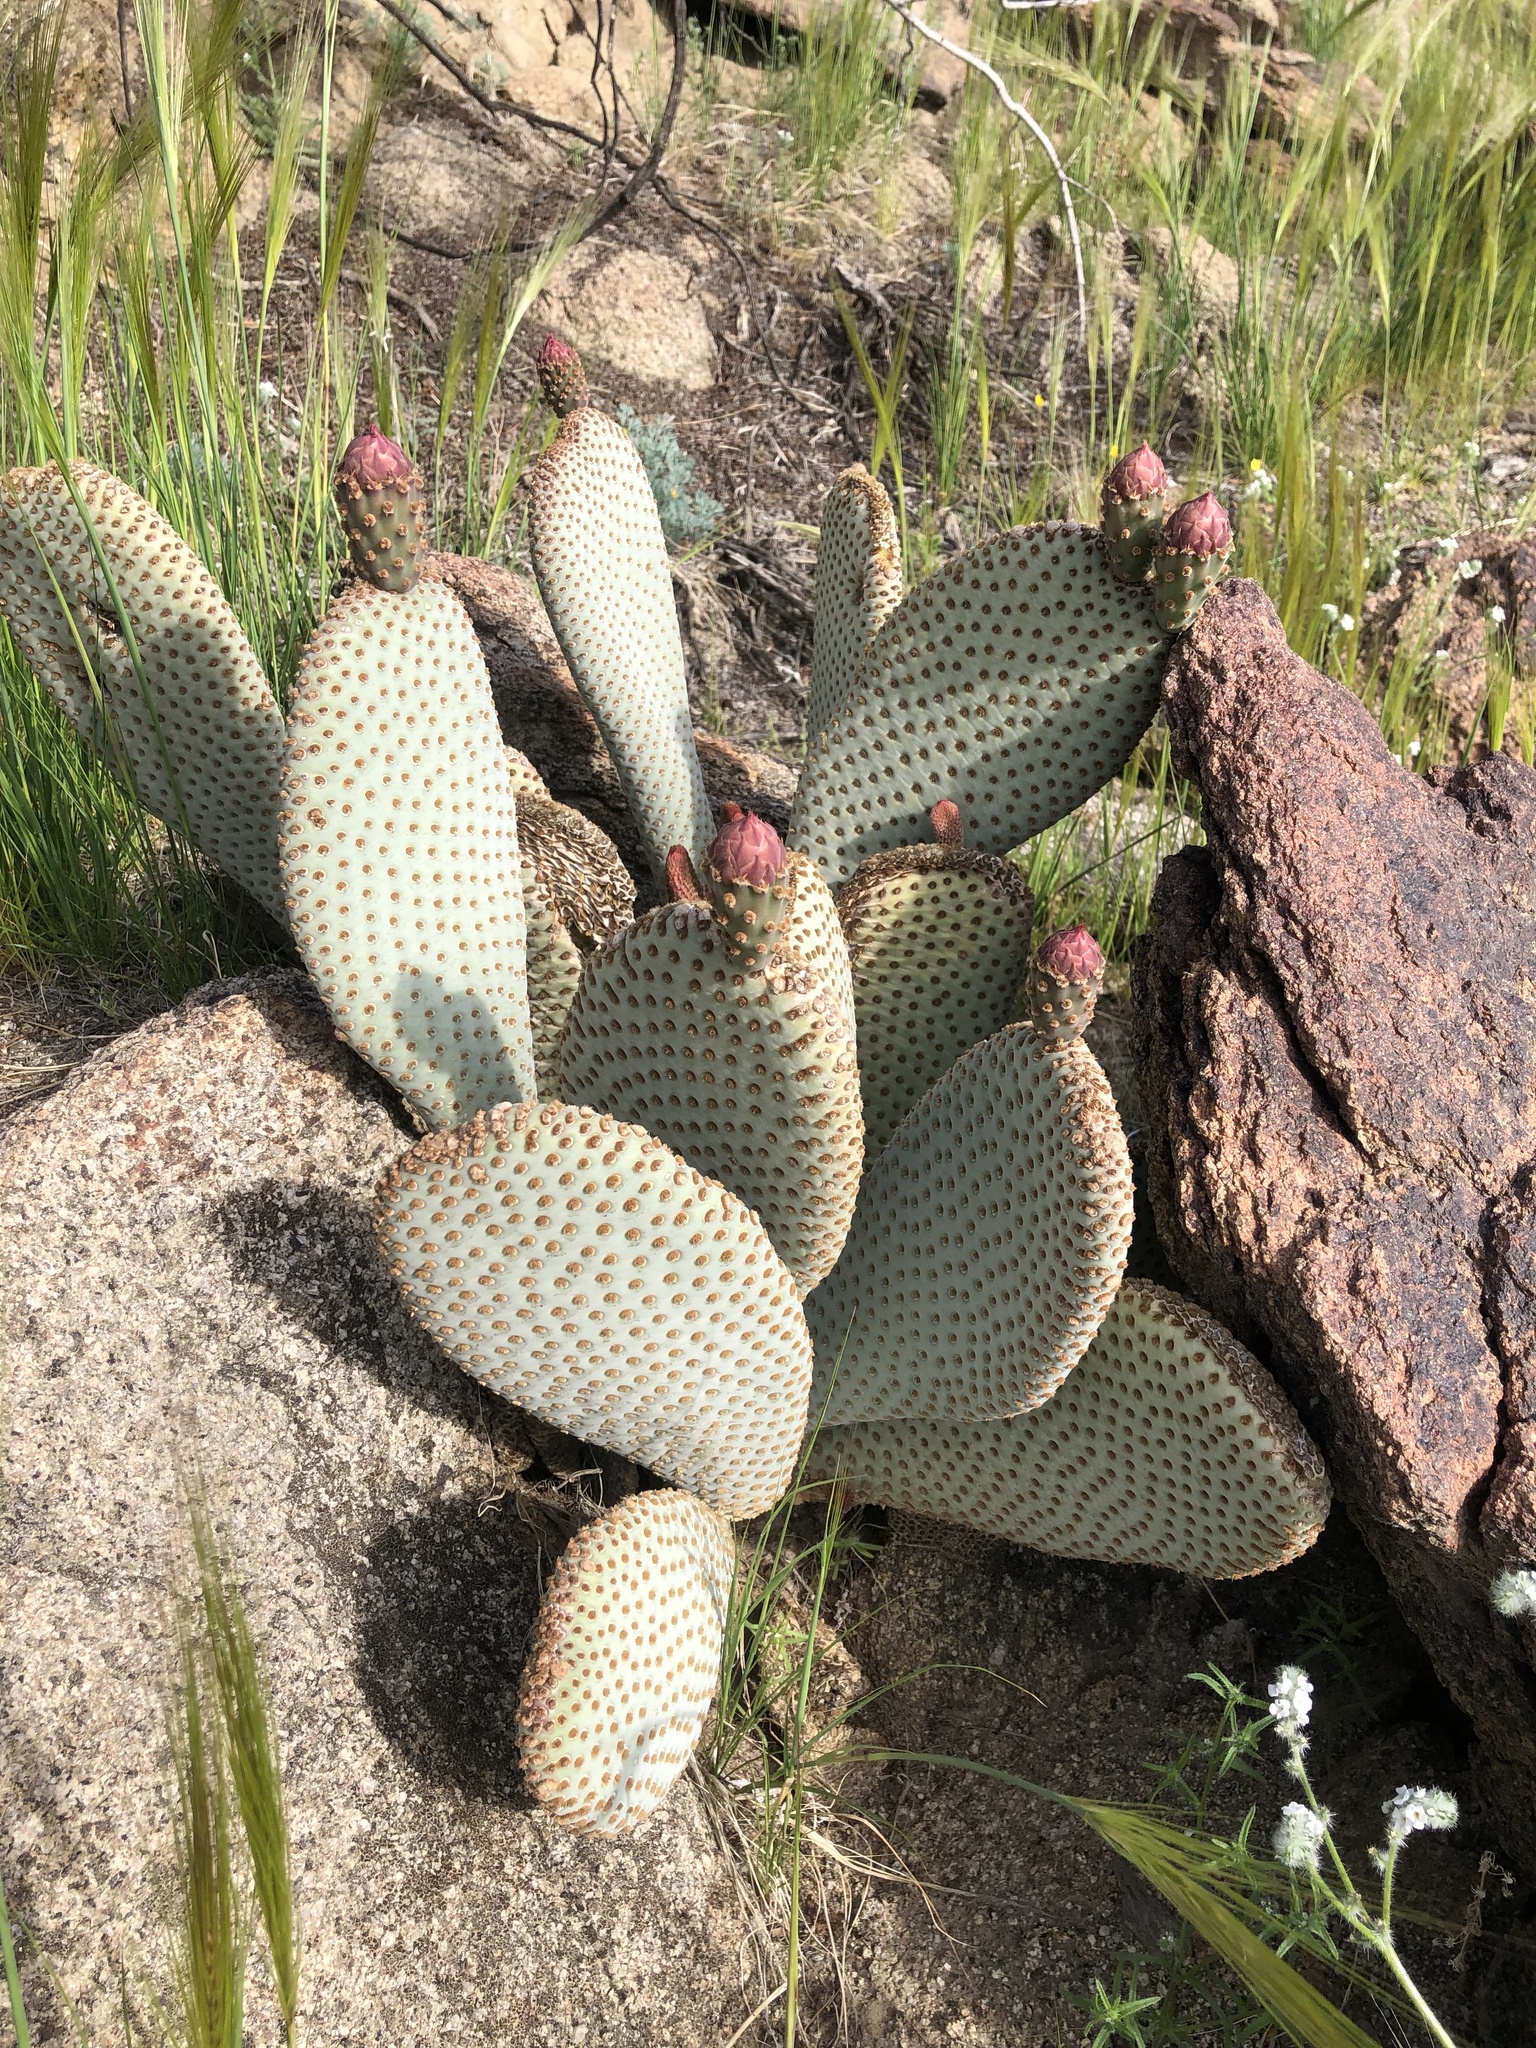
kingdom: Plantae
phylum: Tracheophyta
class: Magnoliopsida
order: Caryophyllales
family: Cactaceae
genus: Opuntia
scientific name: Opuntia basilaris
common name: Beavertail prickly-pear
